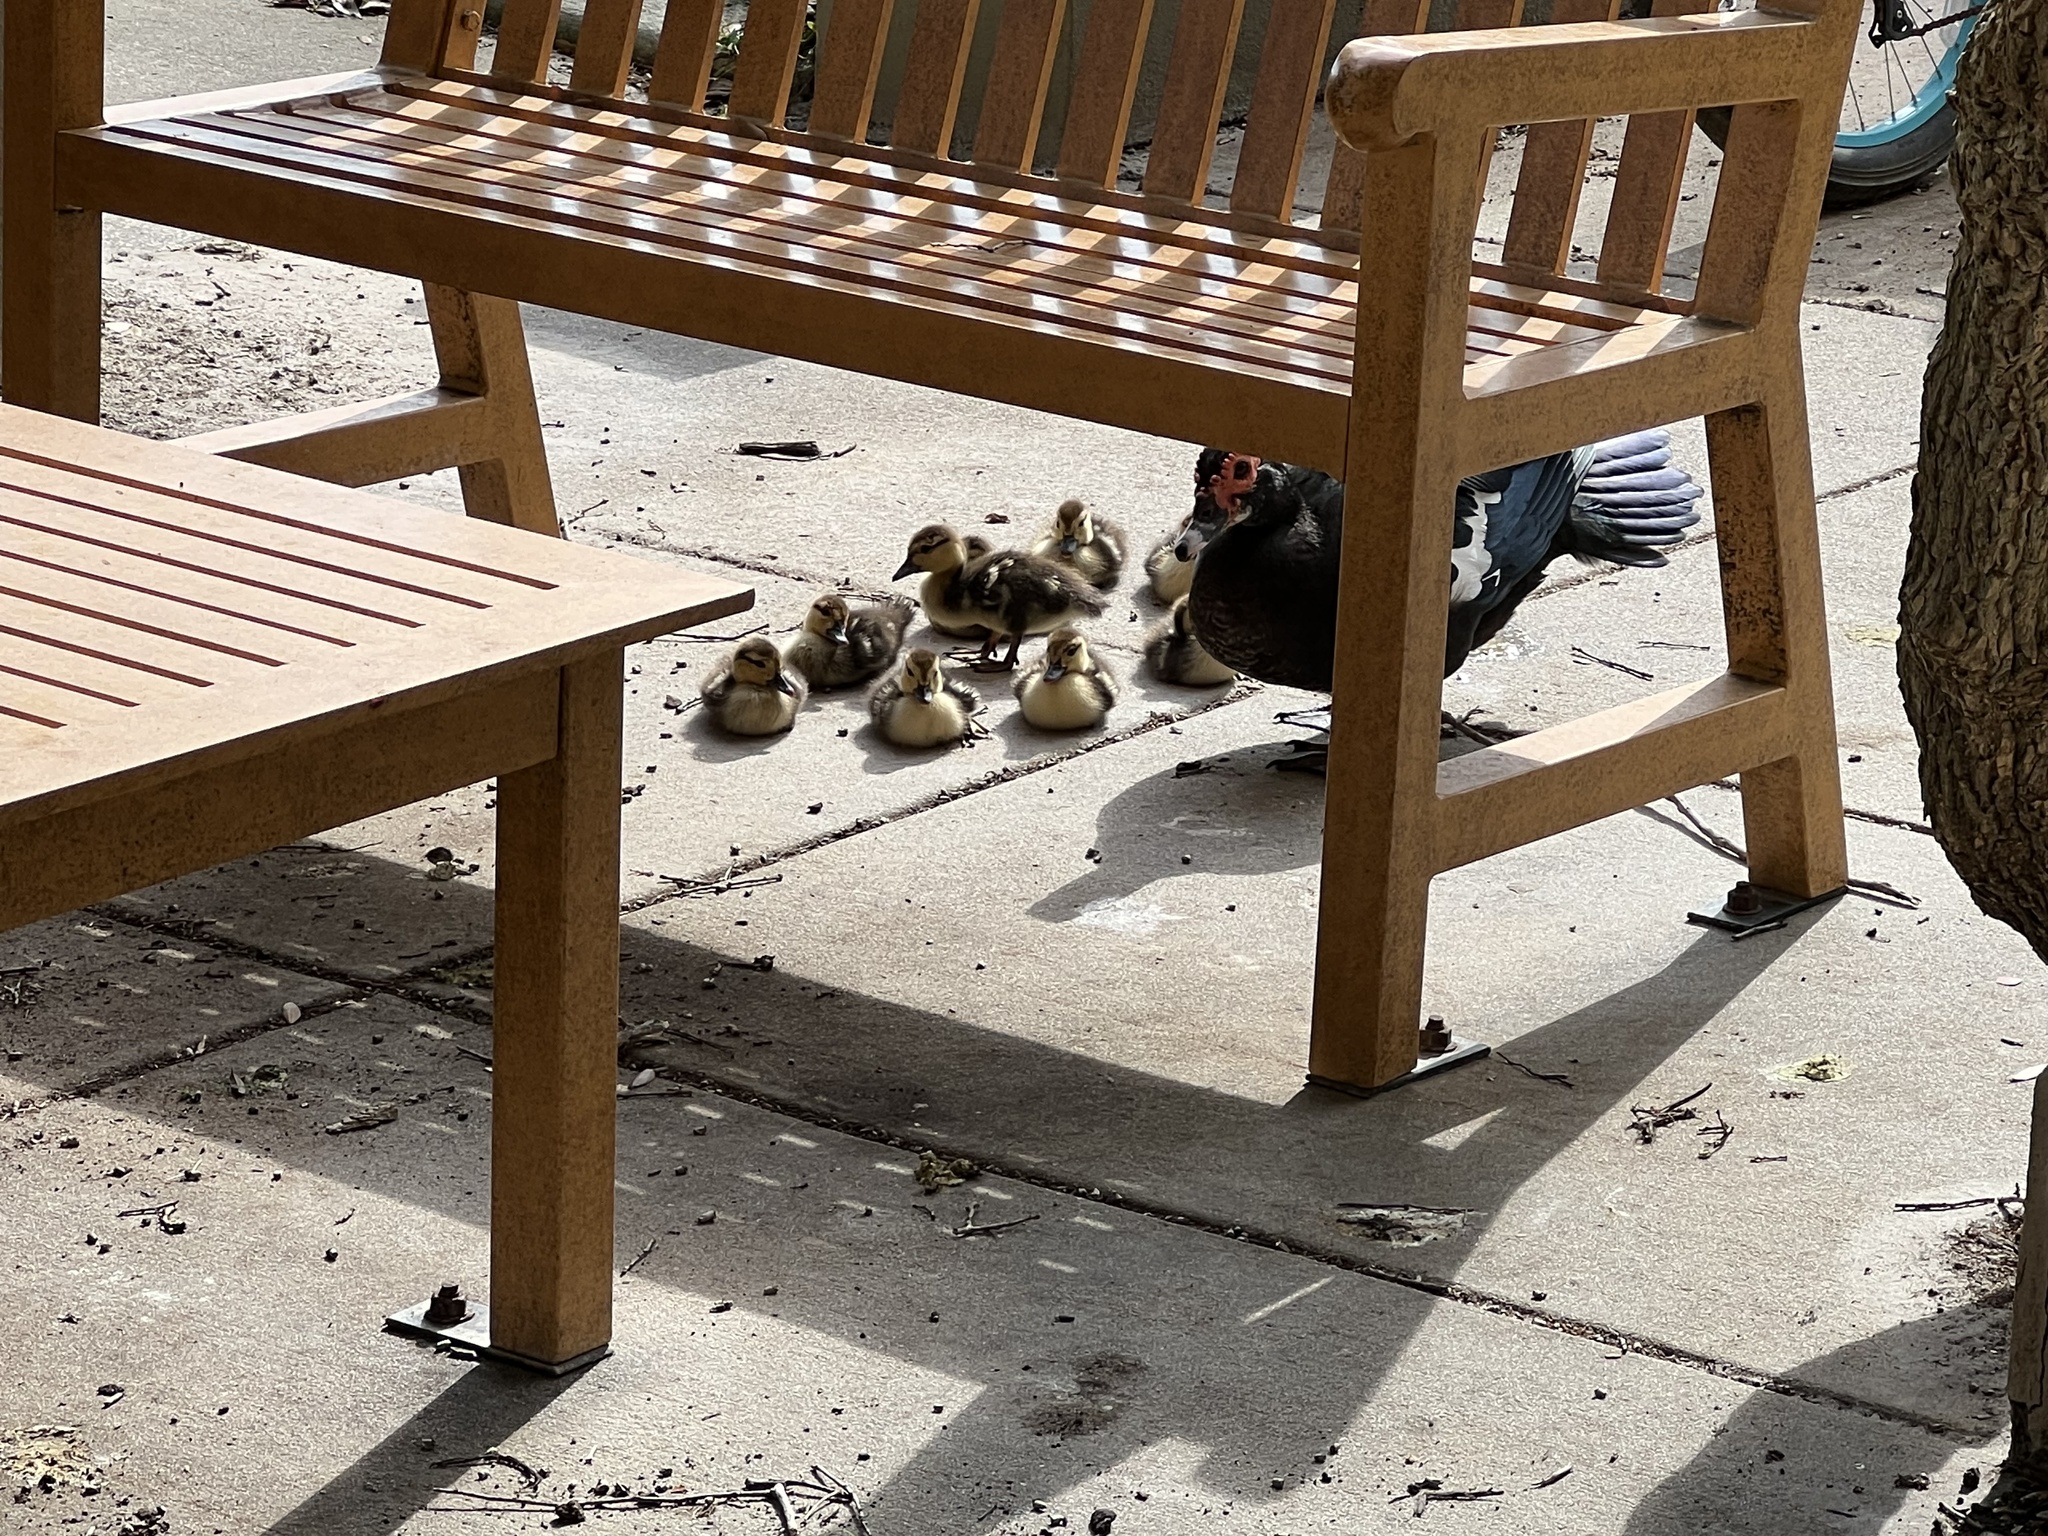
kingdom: Animalia
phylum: Chordata
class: Aves
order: Anseriformes
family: Anatidae
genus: Cairina
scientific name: Cairina moschata
